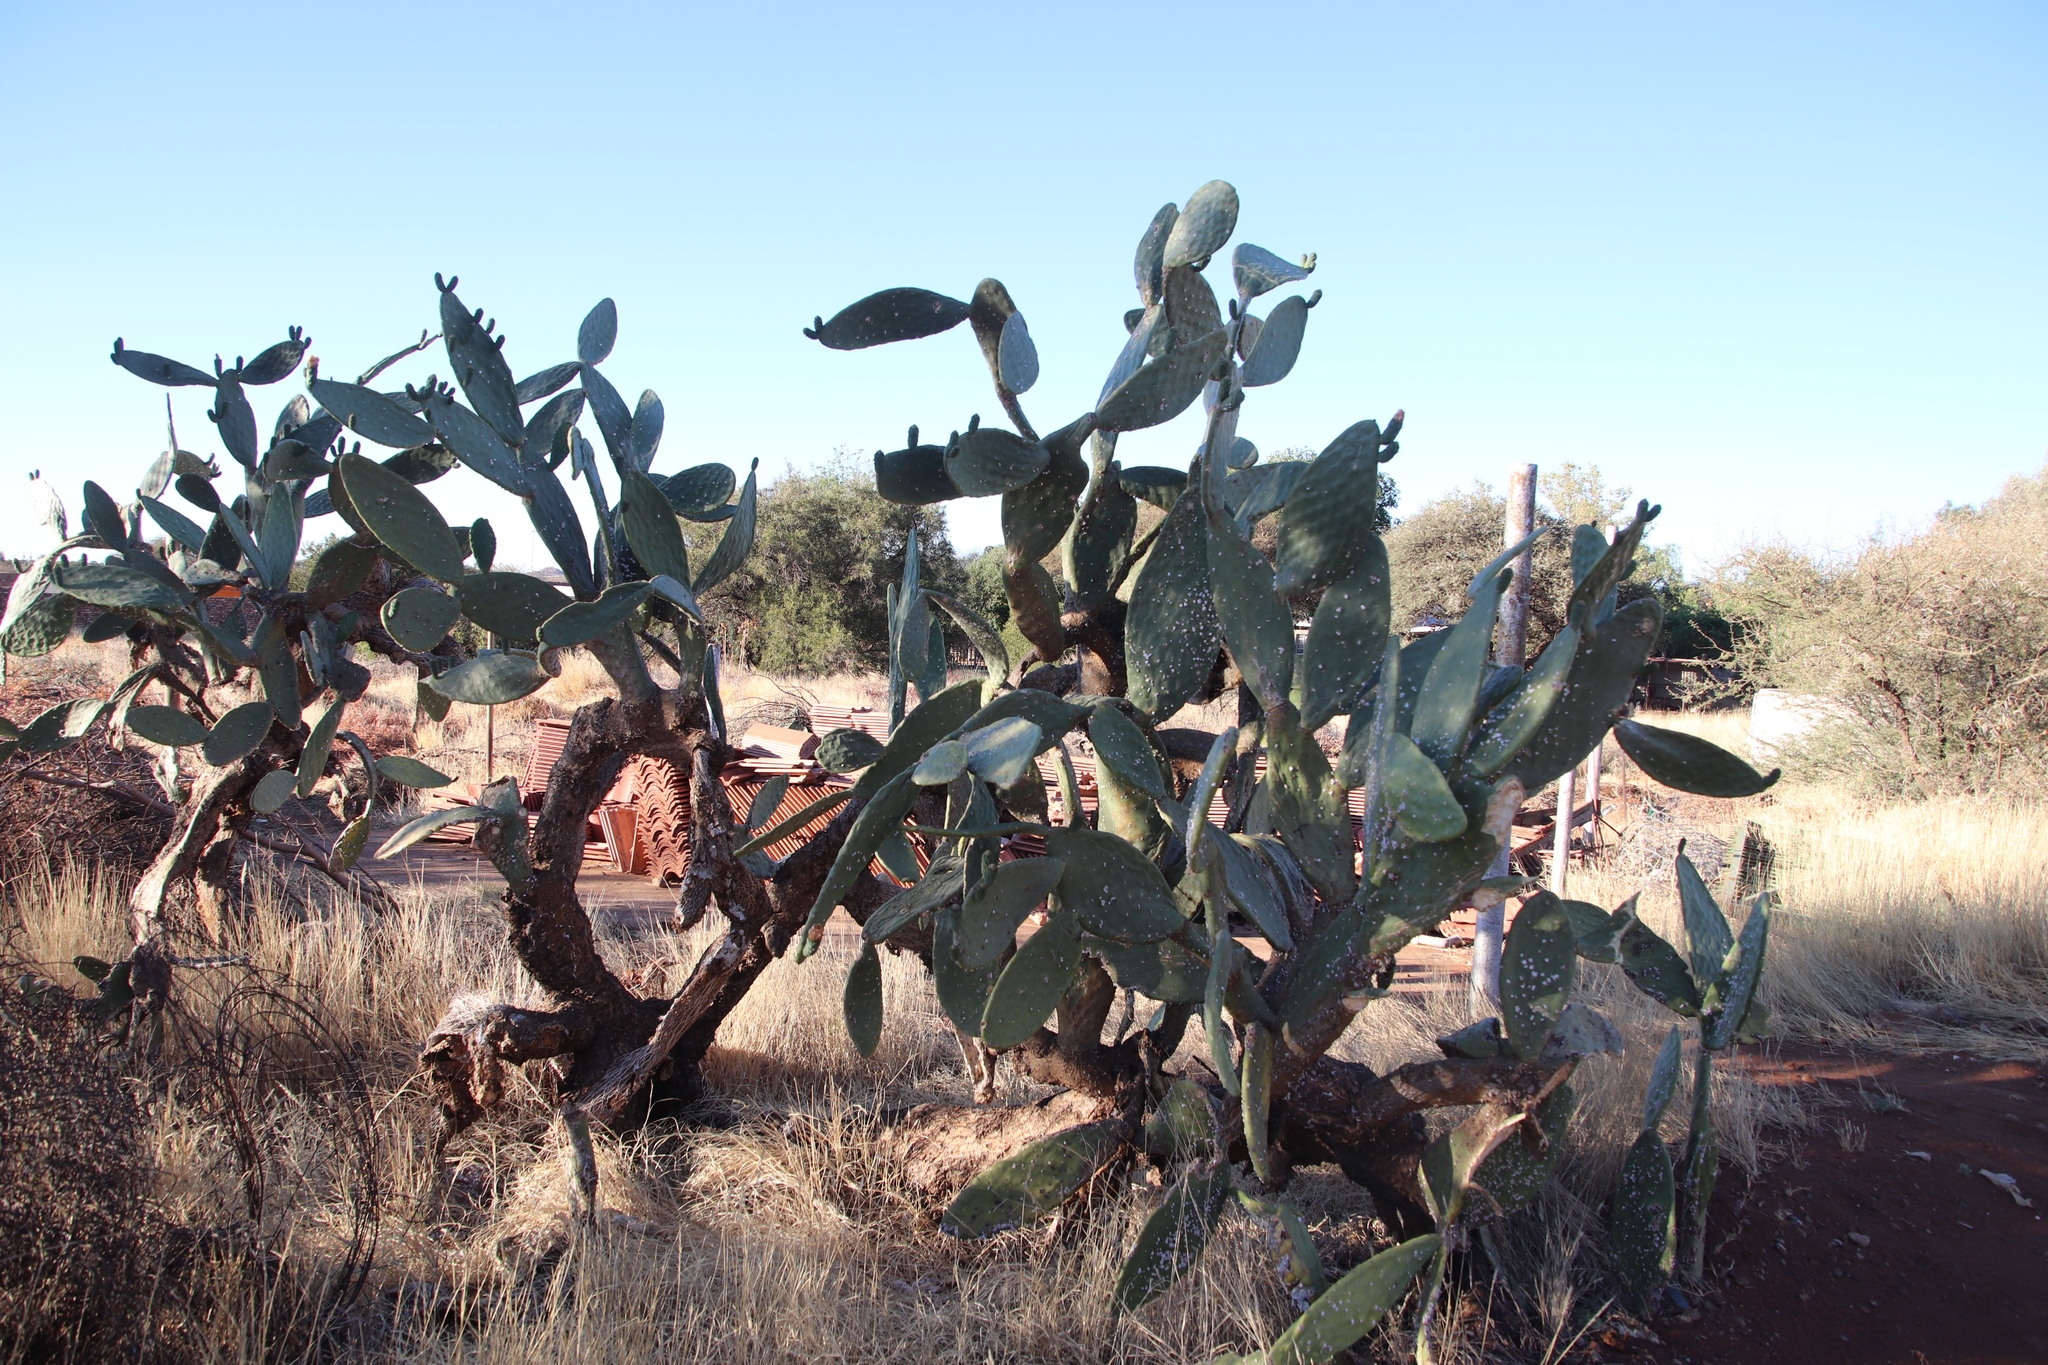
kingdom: Animalia
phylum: Arthropoda
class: Insecta
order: Hemiptera
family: Dactylopiidae
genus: Dactylopius
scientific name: Dactylopius opuntiae
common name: Opuntia cochineal scale
